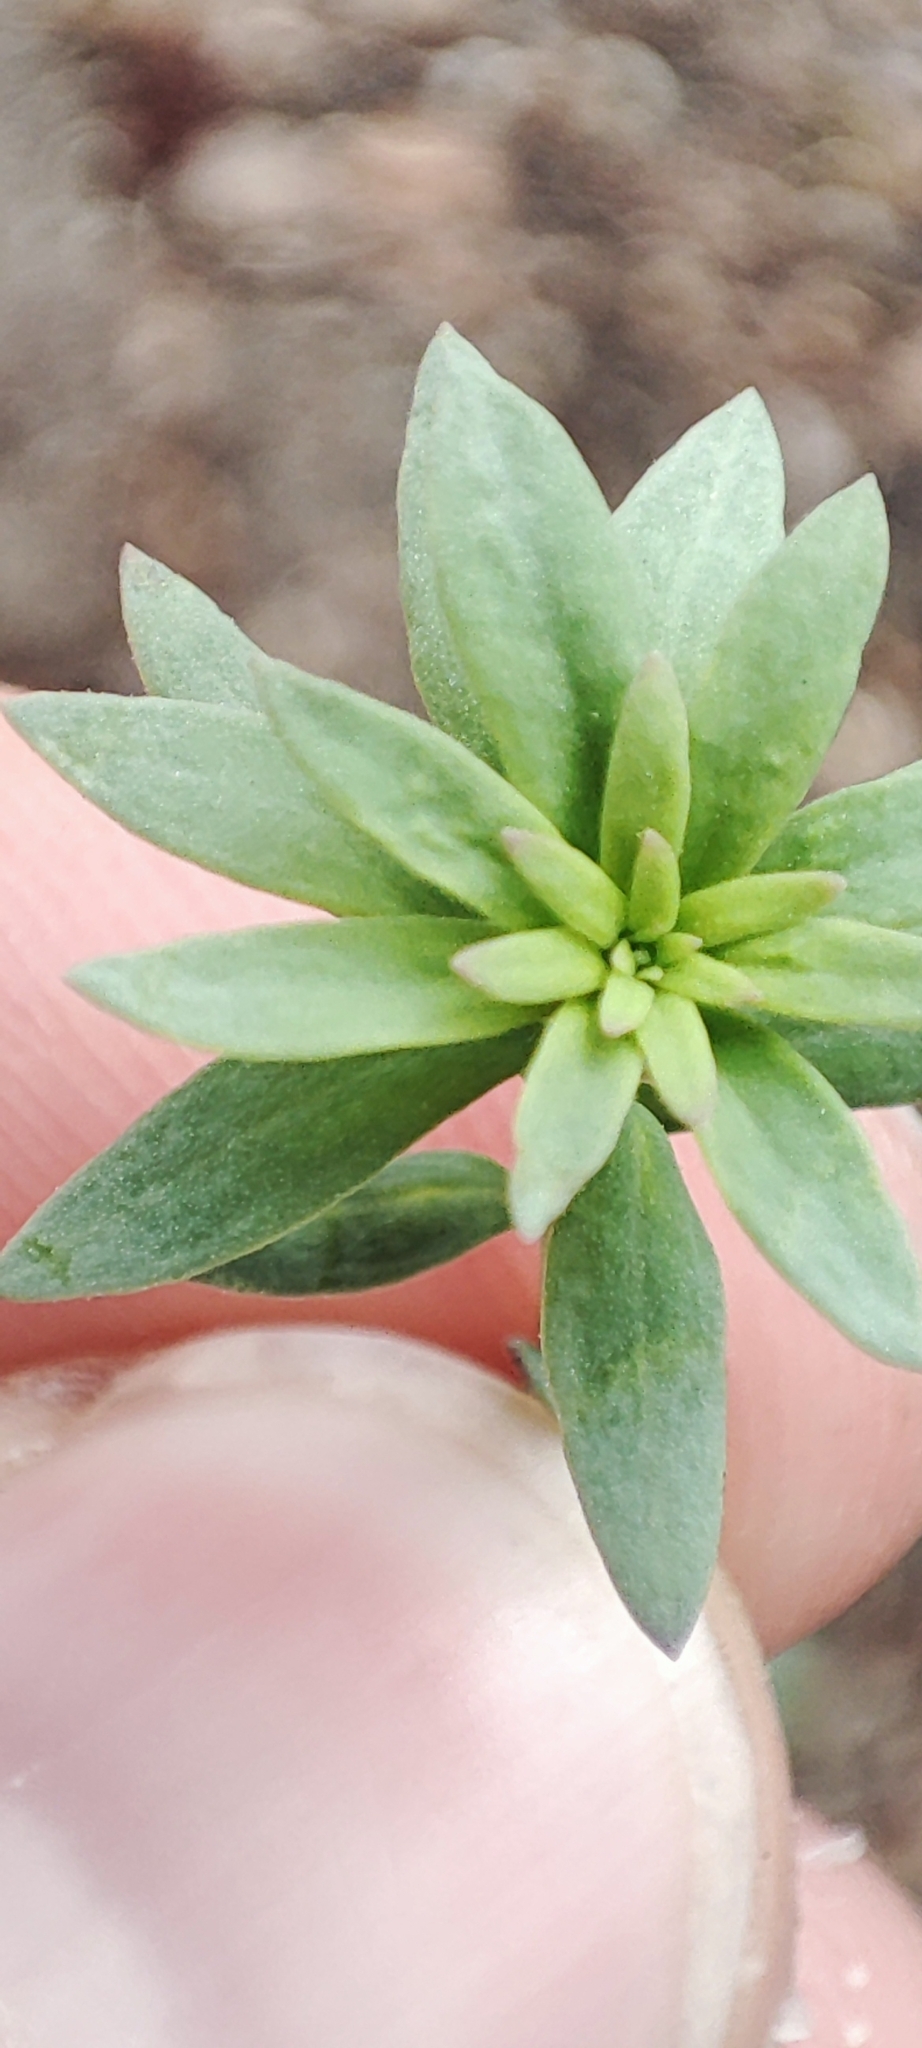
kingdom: Plantae
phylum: Tracheophyta
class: Magnoliopsida
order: Lamiales
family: Plantaginaceae
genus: Linaria
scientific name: Linaria vulgaris
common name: Butter and eggs
